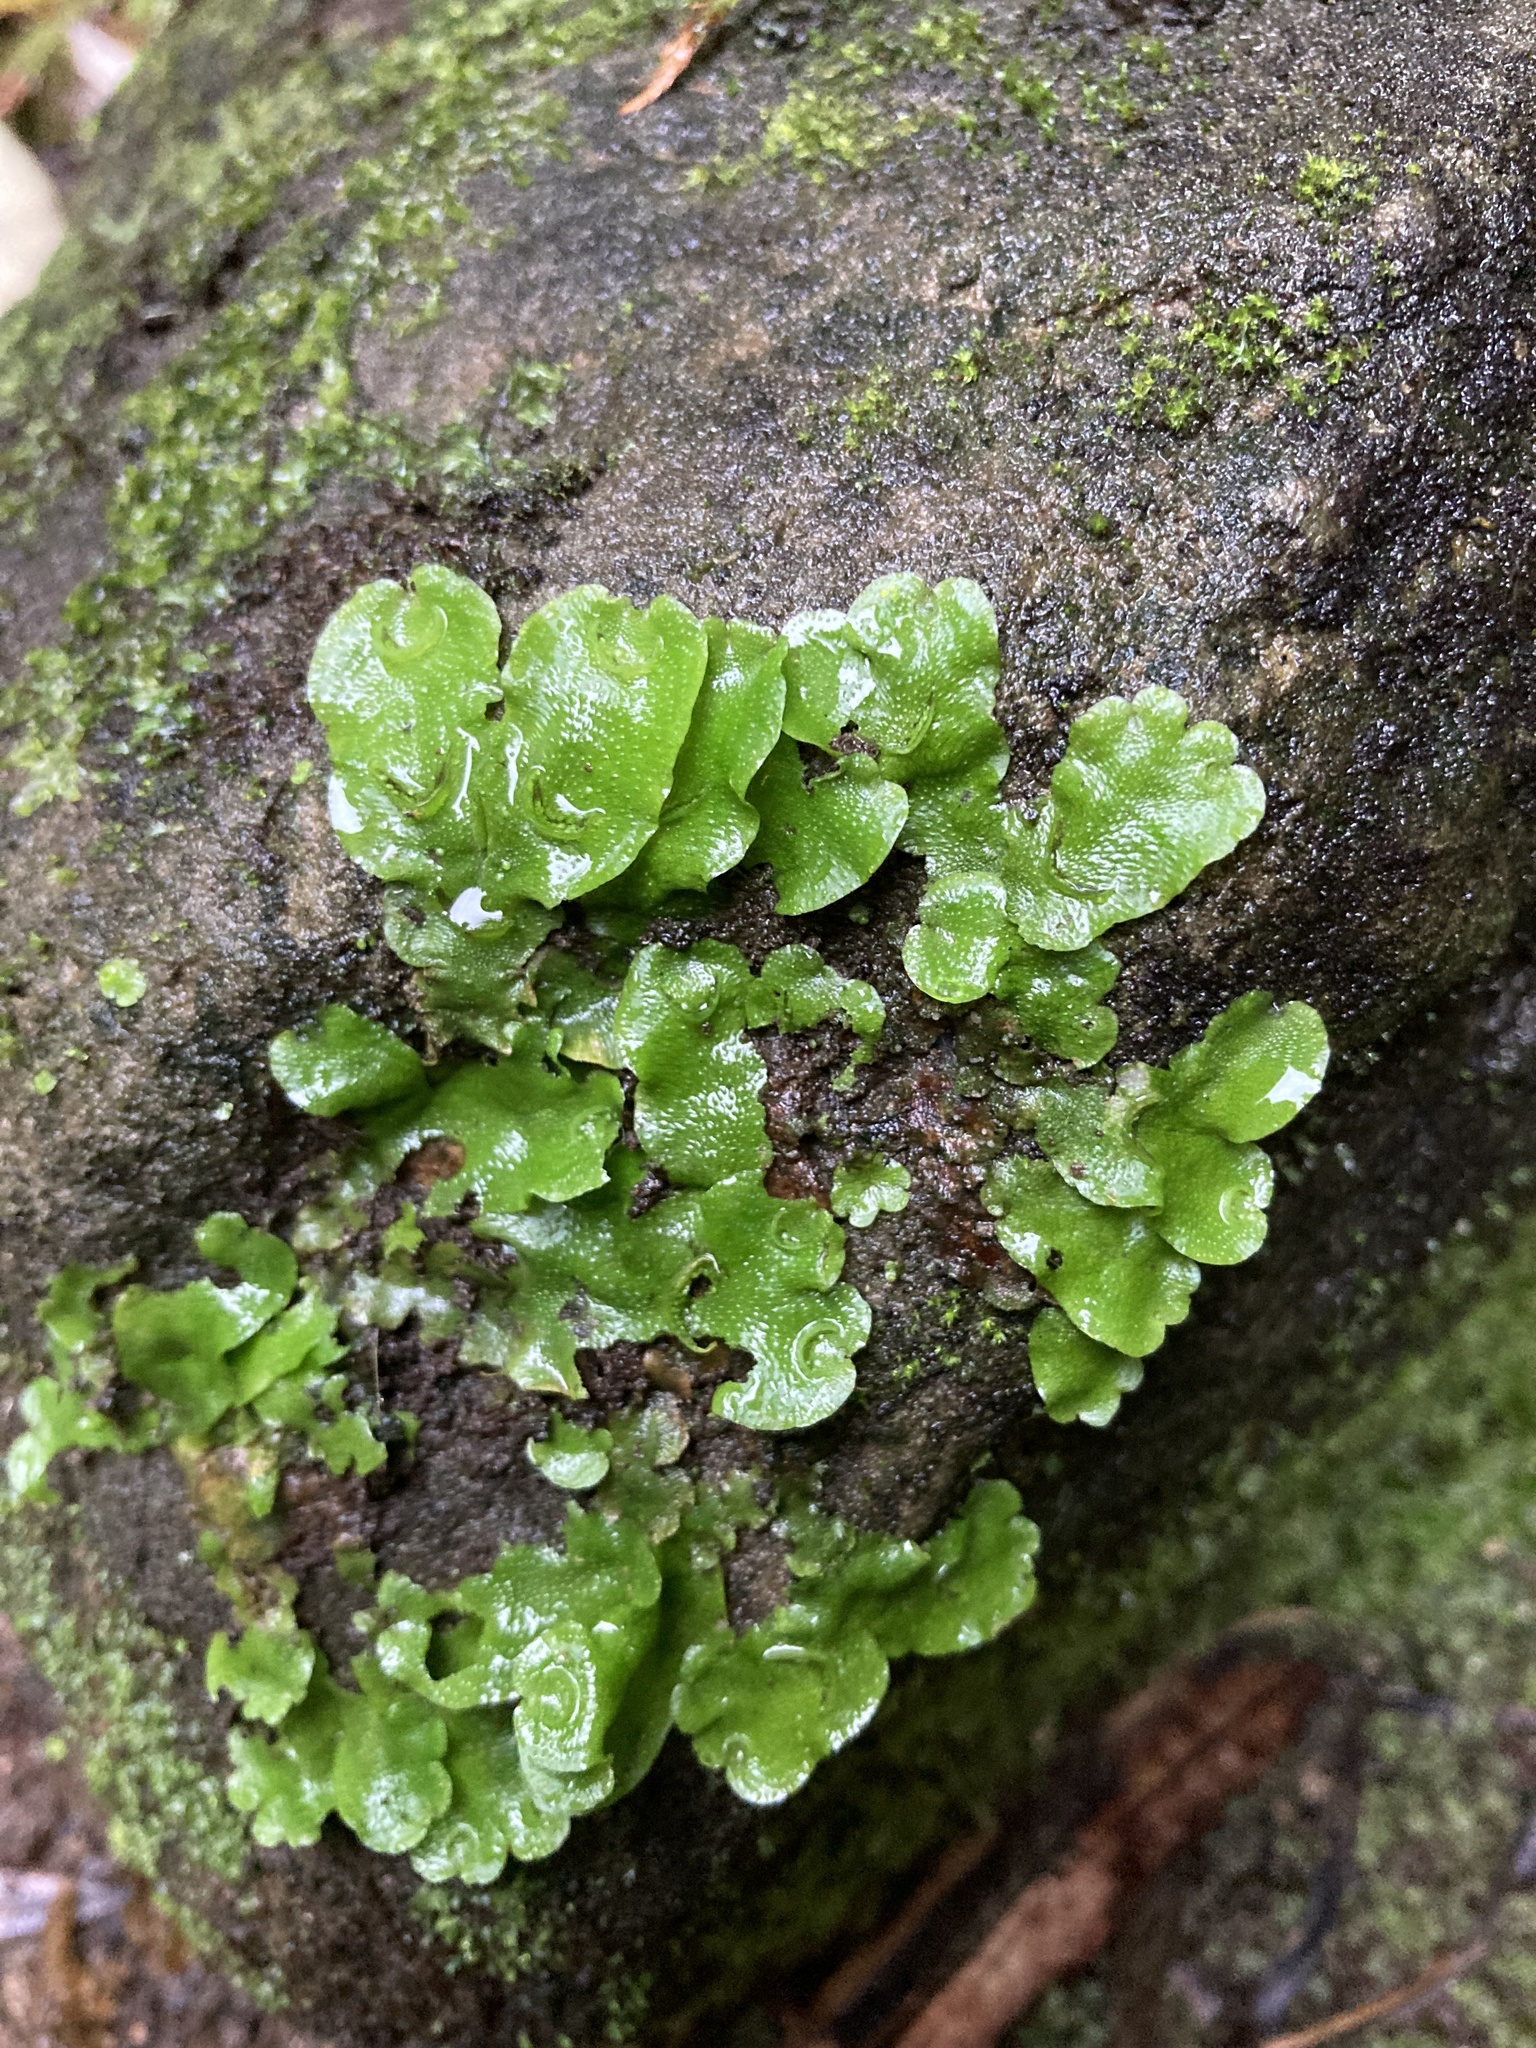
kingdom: Plantae
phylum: Marchantiophyta
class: Marchantiopsida
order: Lunulariales
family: Lunulariaceae
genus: Lunularia
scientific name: Lunularia cruciata
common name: Crescent-cup liverwort
